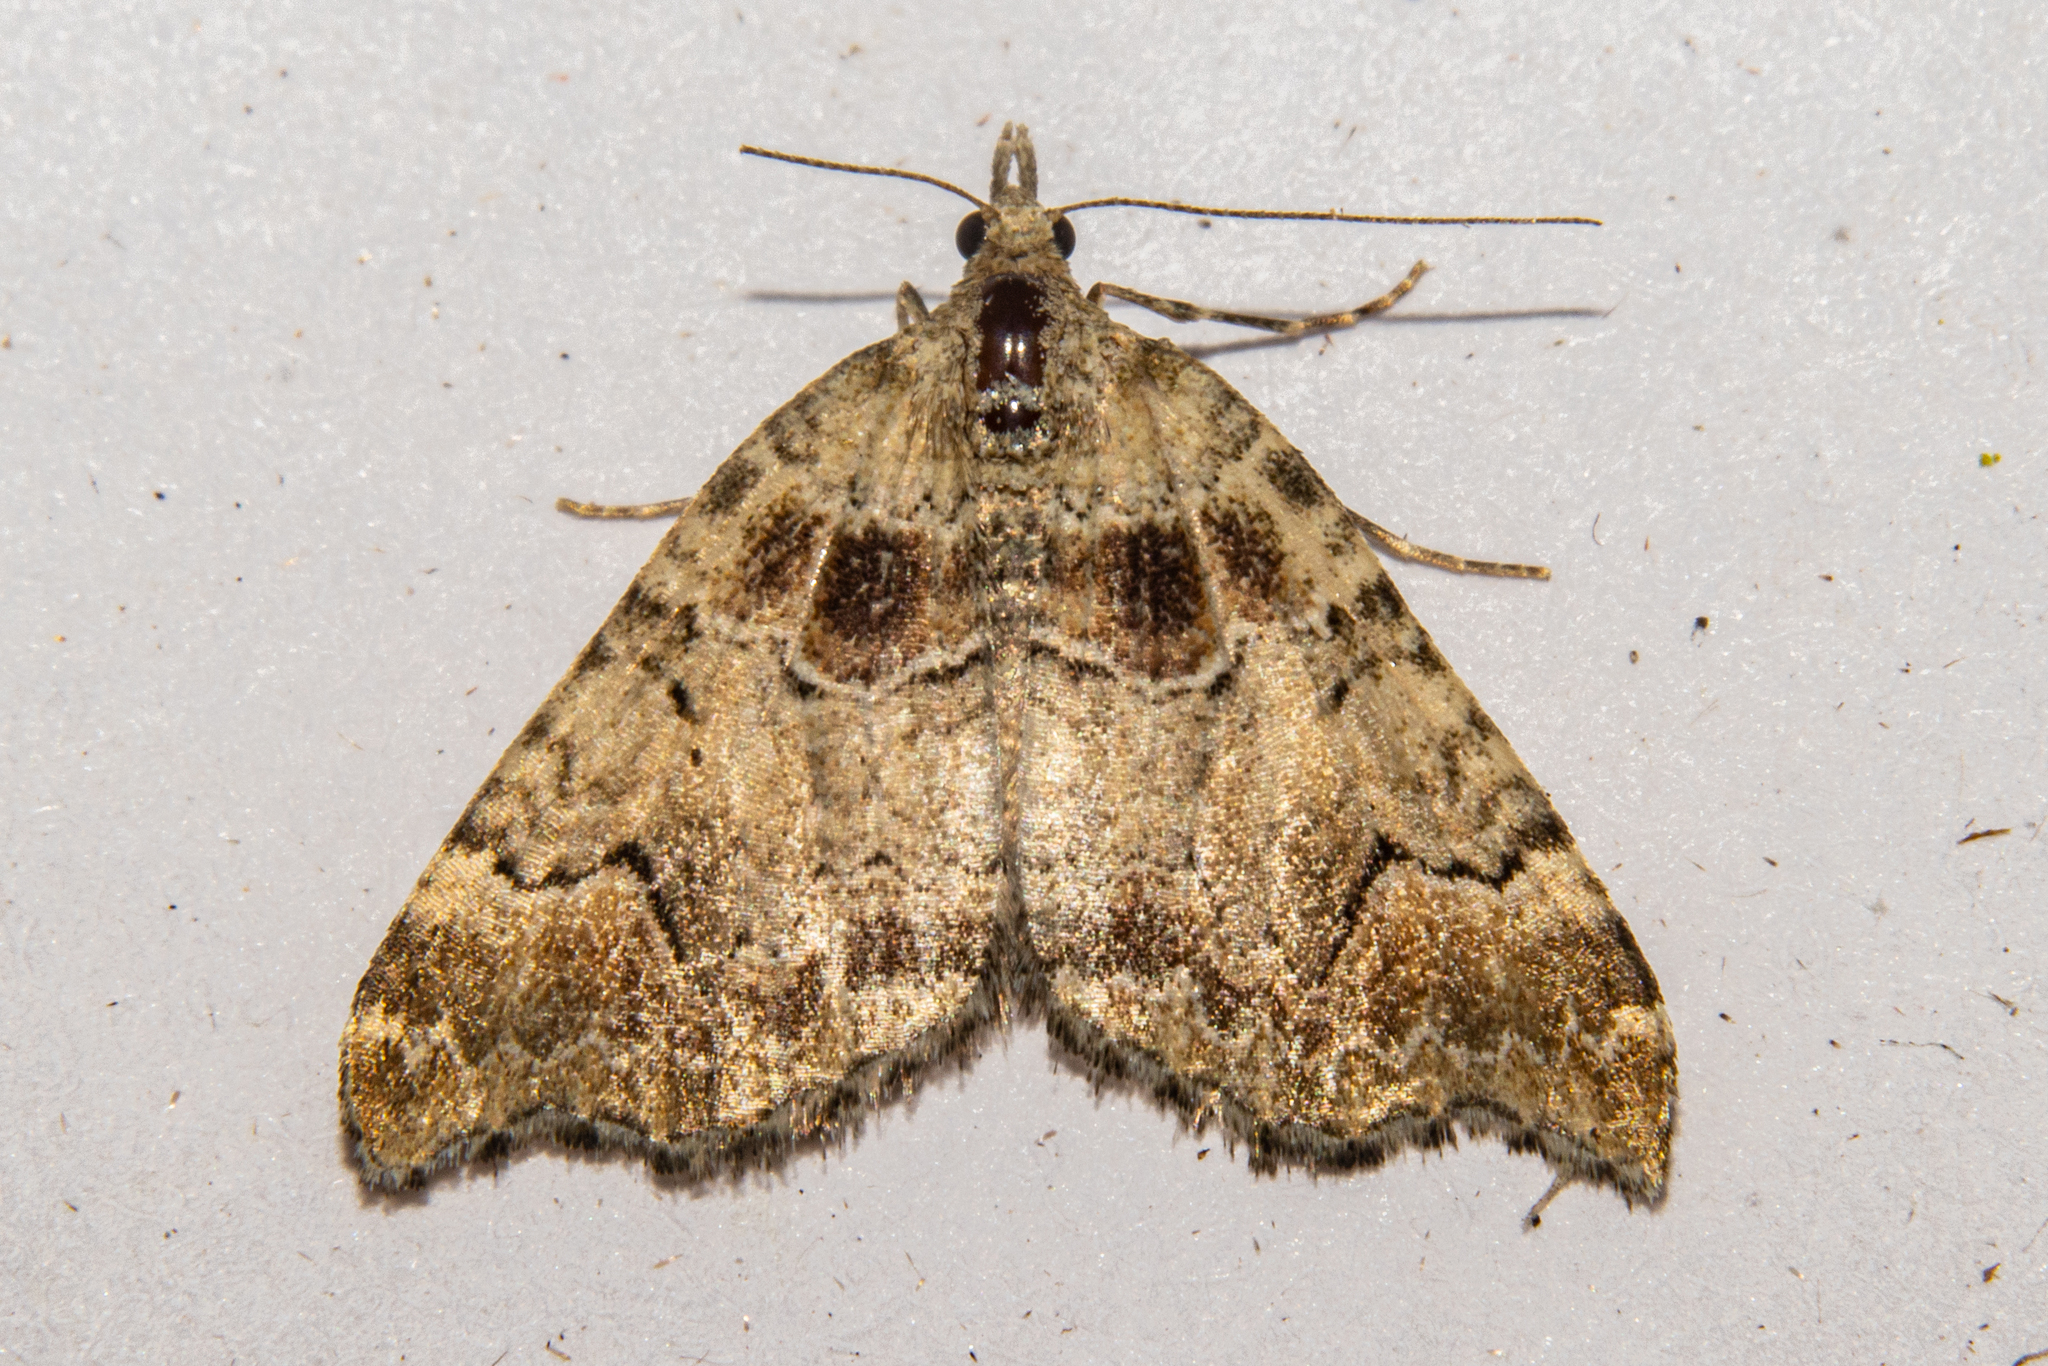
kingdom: Animalia
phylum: Arthropoda
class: Insecta
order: Lepidoptera
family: Geometridae
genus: Helastia
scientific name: Helastia cryptica
